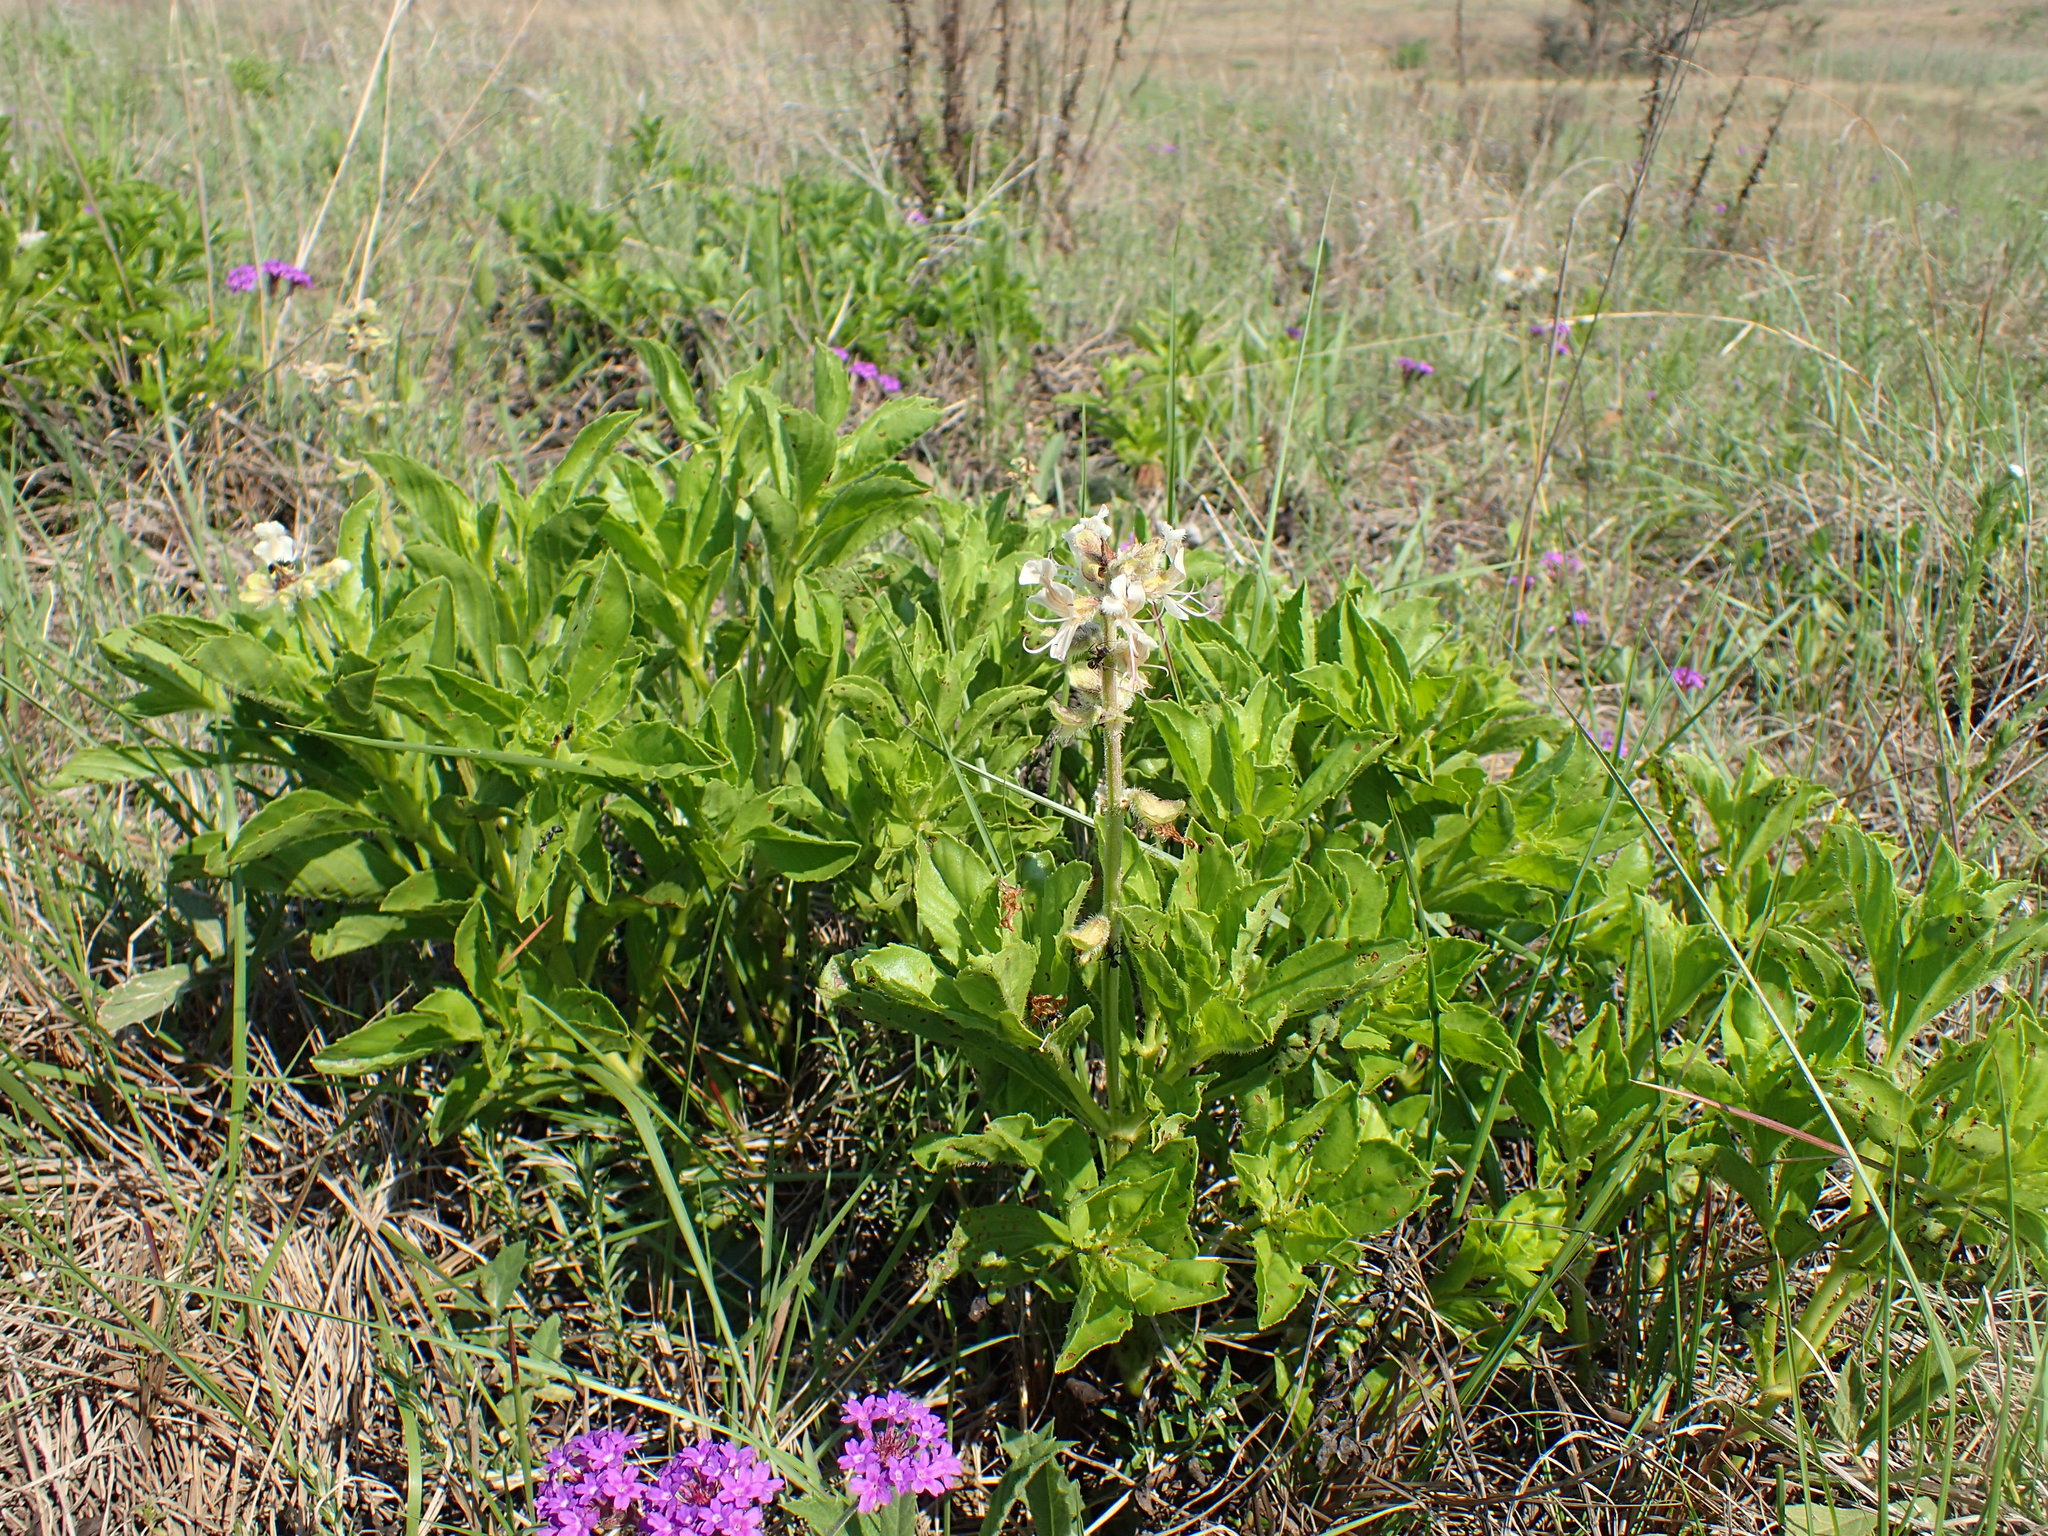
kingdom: Plantae
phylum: Tracheophyta
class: Magnoliopsida
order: Lamiales
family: Lamiaceae
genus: Ocimum
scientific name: Ocimum obovatum
